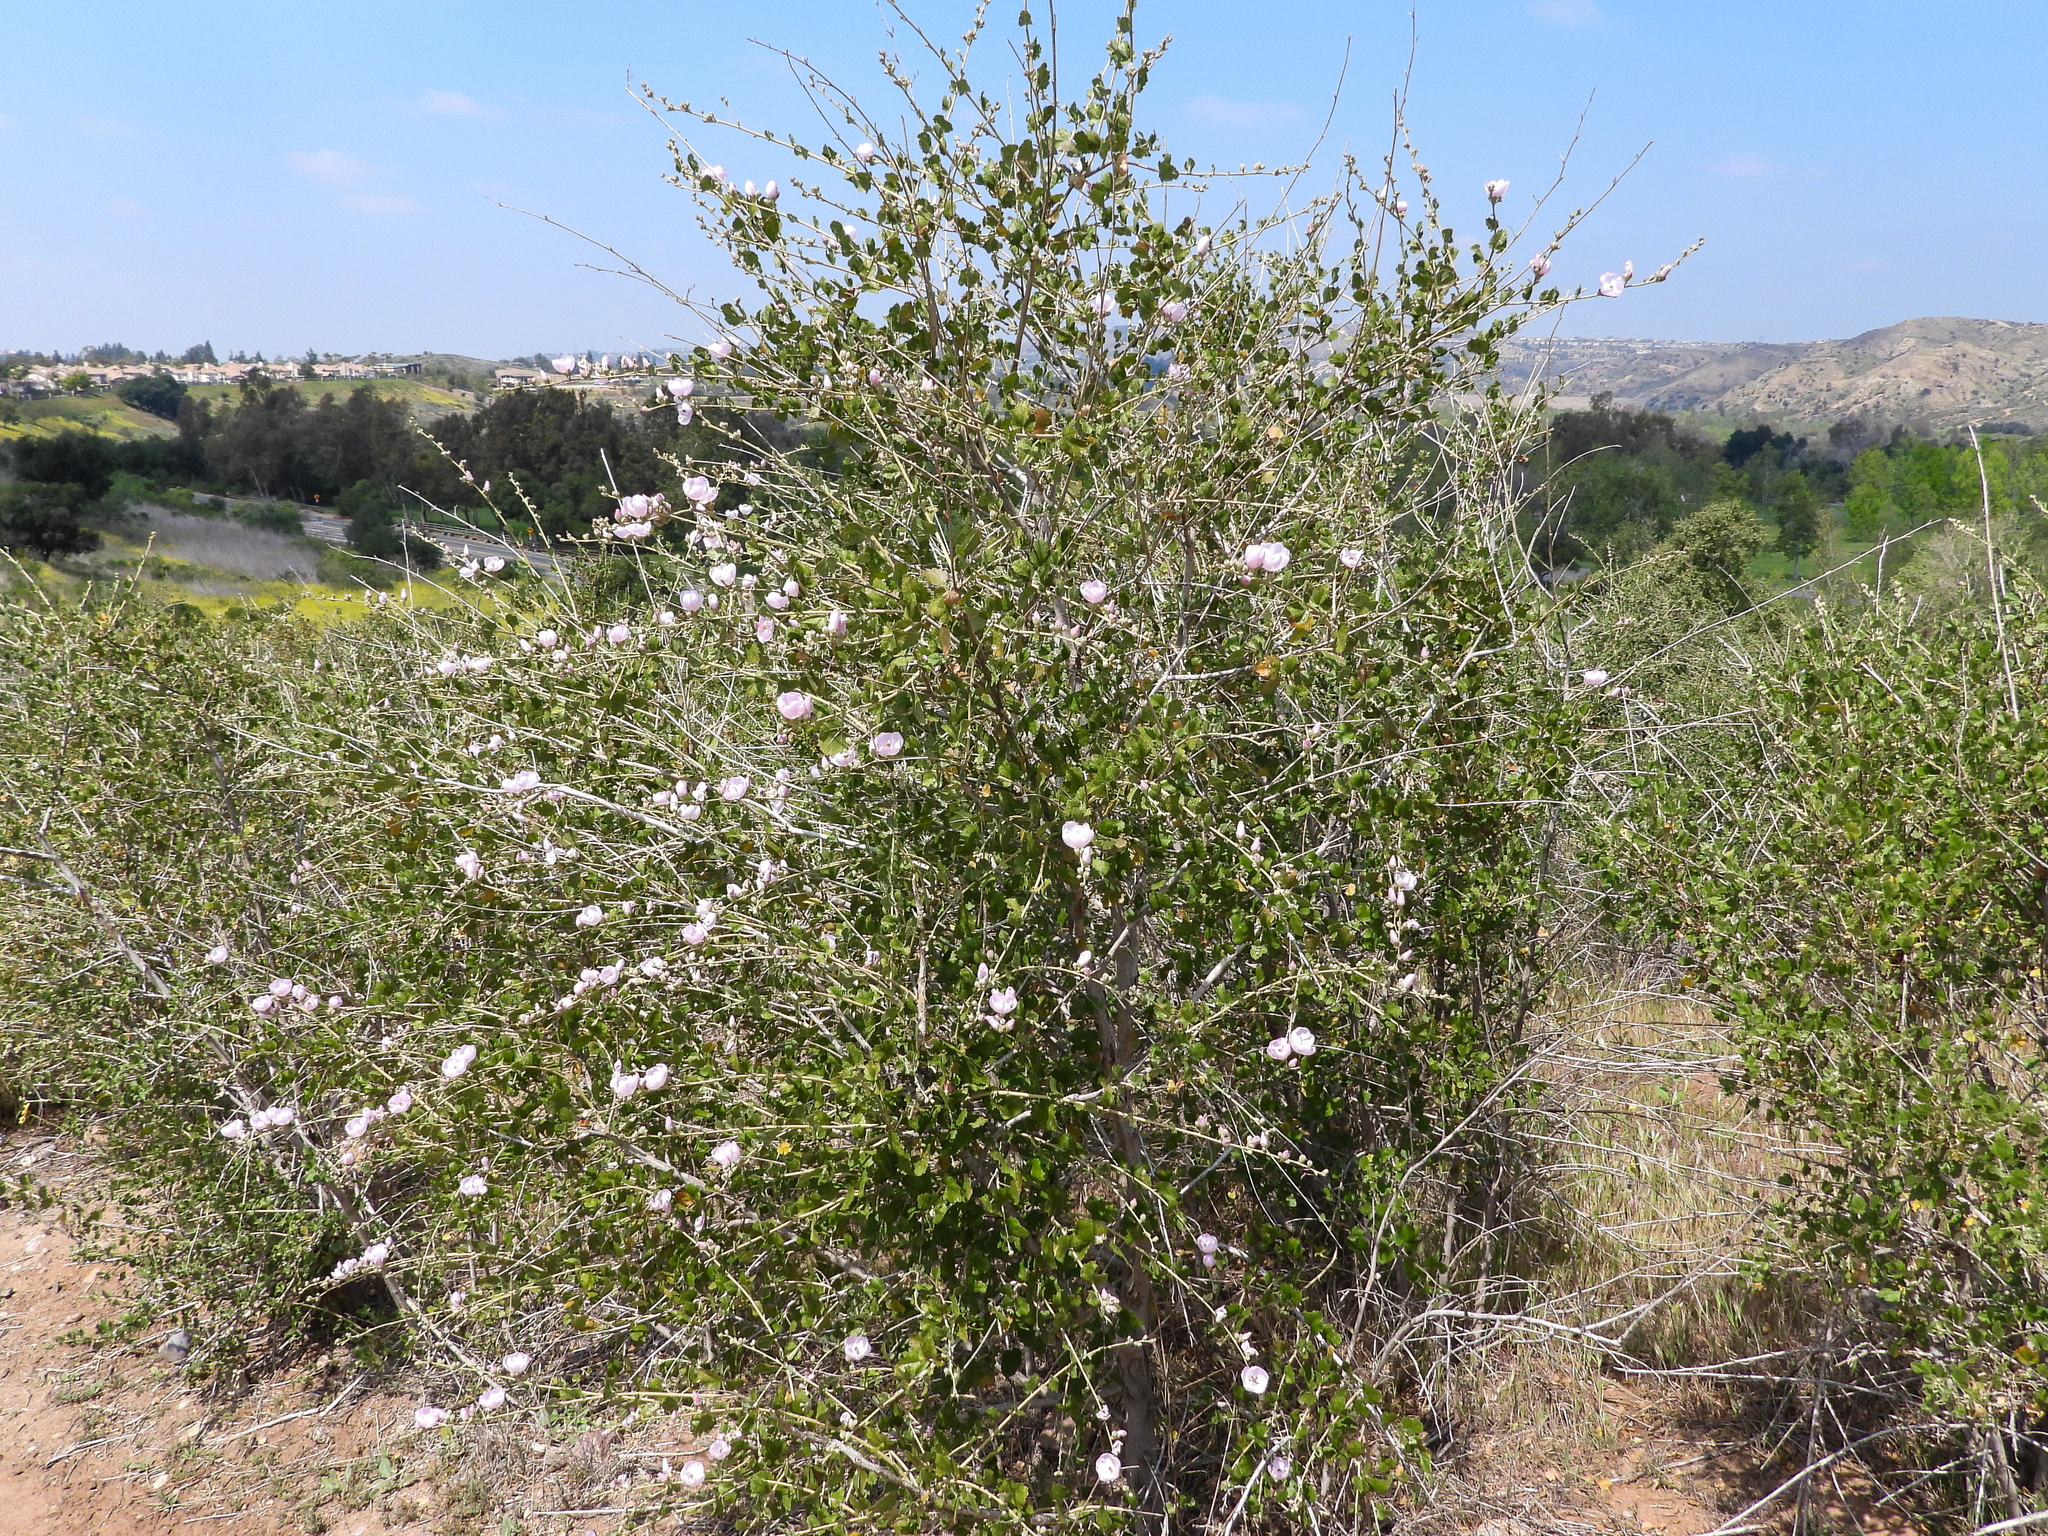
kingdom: Plantae
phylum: Tracheophyta
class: Magnoliopsida
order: Malvales
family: Malvaceae
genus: Malacothamnus
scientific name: Malacothamnus fasciculatus
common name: Sant cruz island bush-mallow
